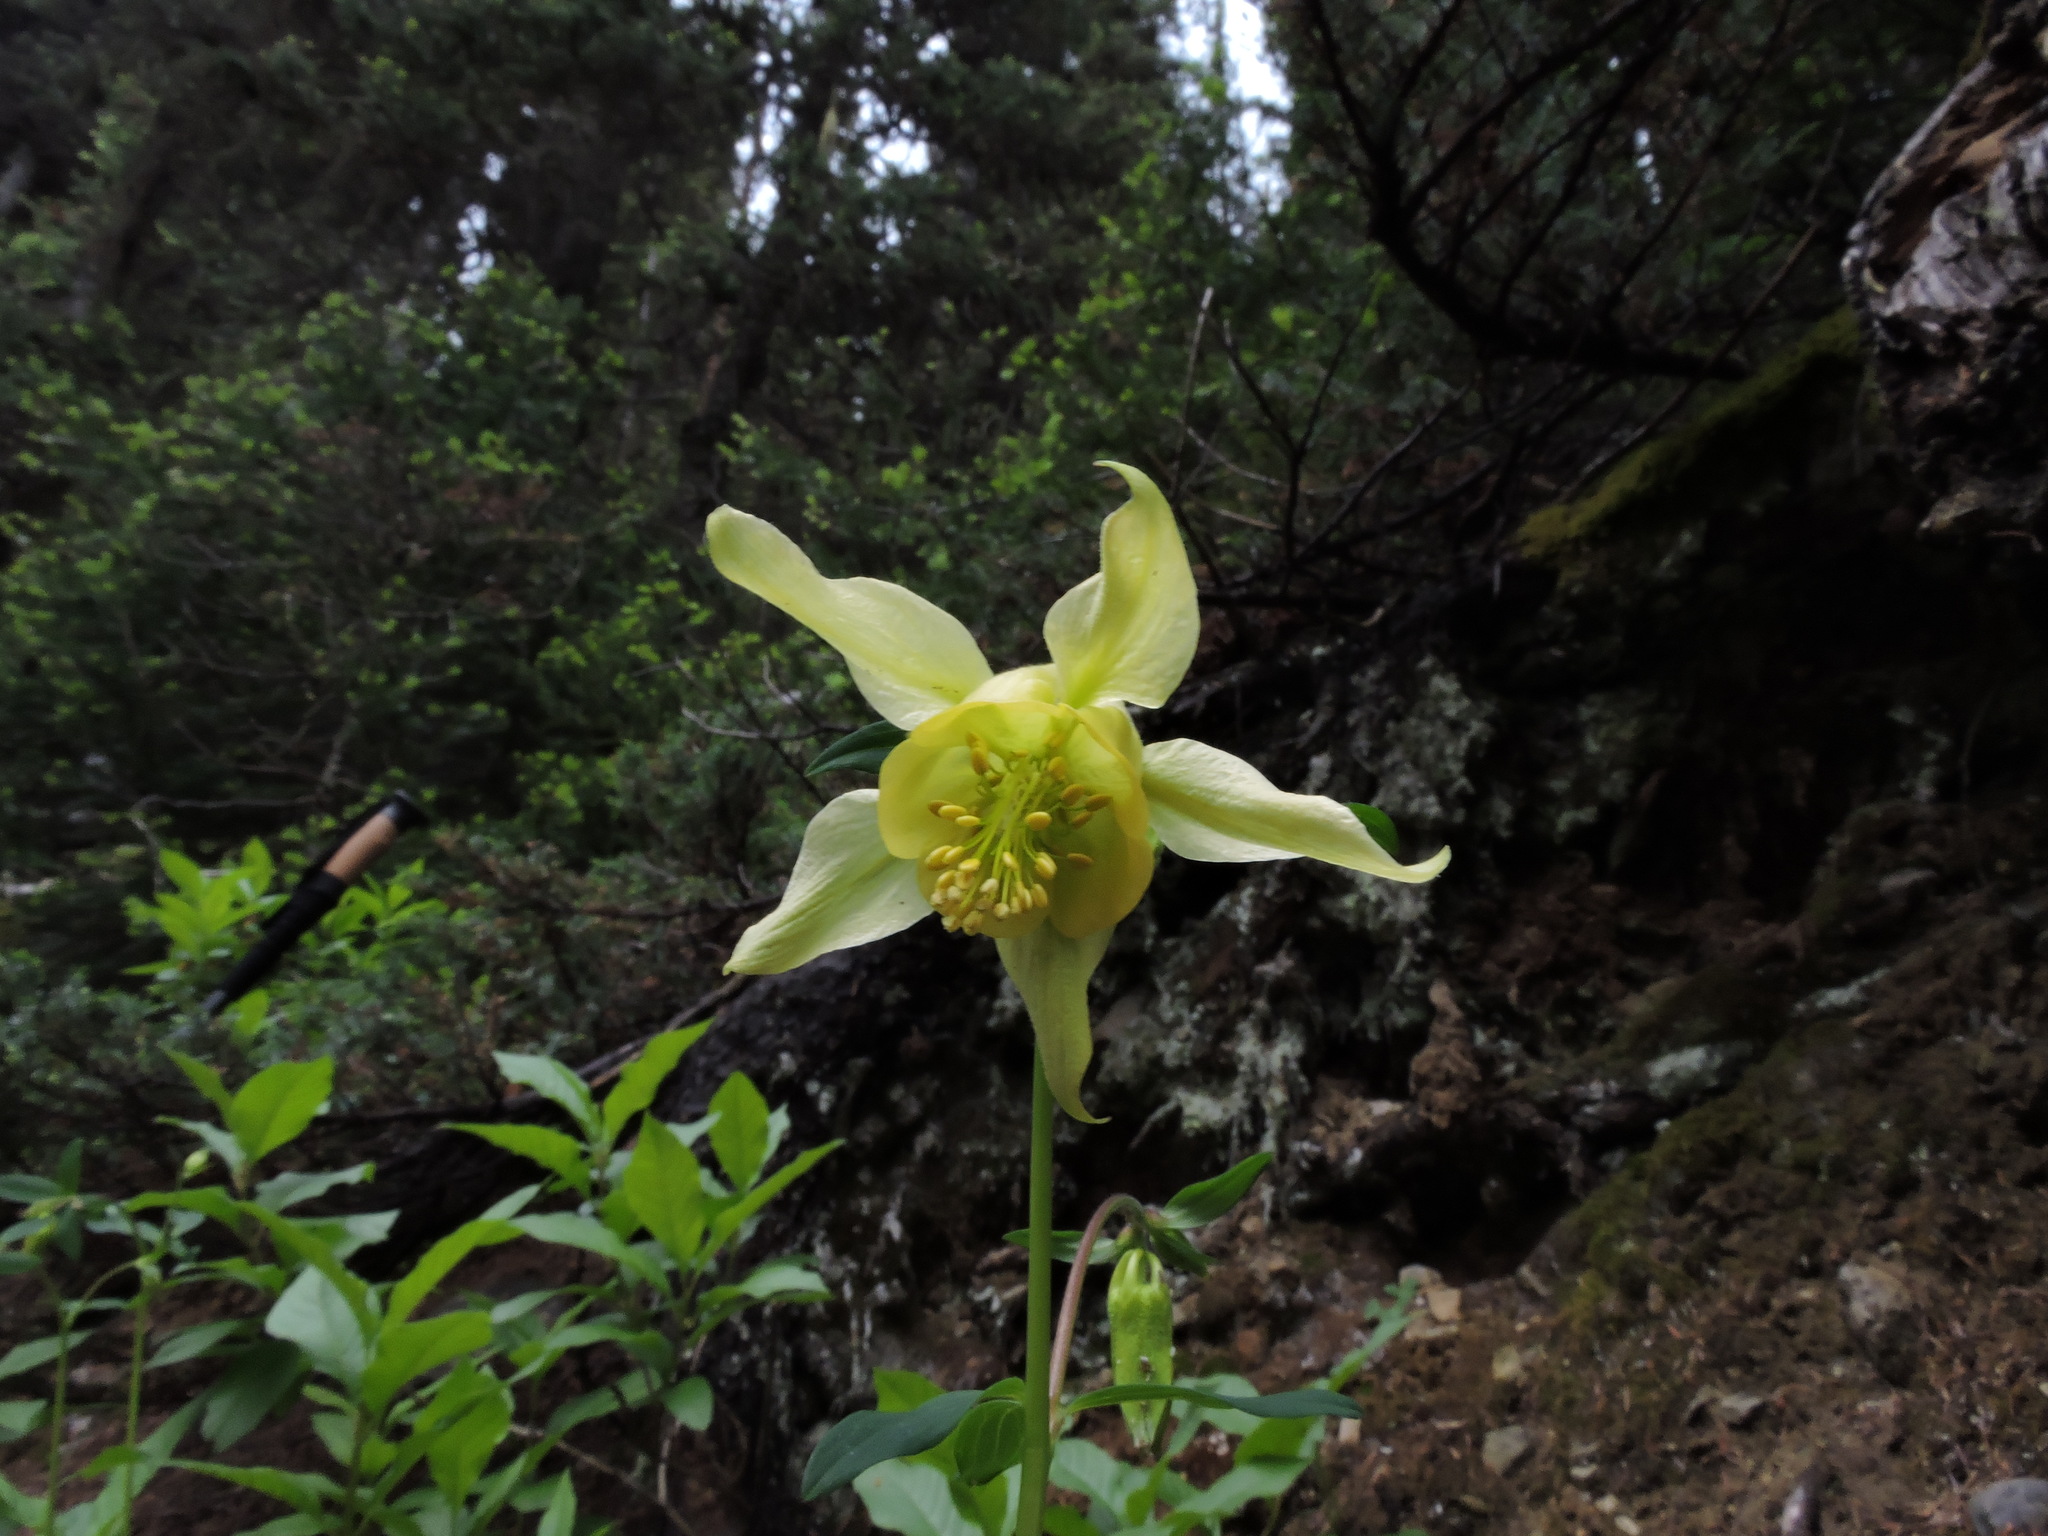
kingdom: Plantae
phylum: Tracheophyta
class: Magnoliopsida
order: Ranunculales
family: Ranunculaceae
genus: Aquilegia
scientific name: Aquilegia flavescens
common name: Yellow columbine
